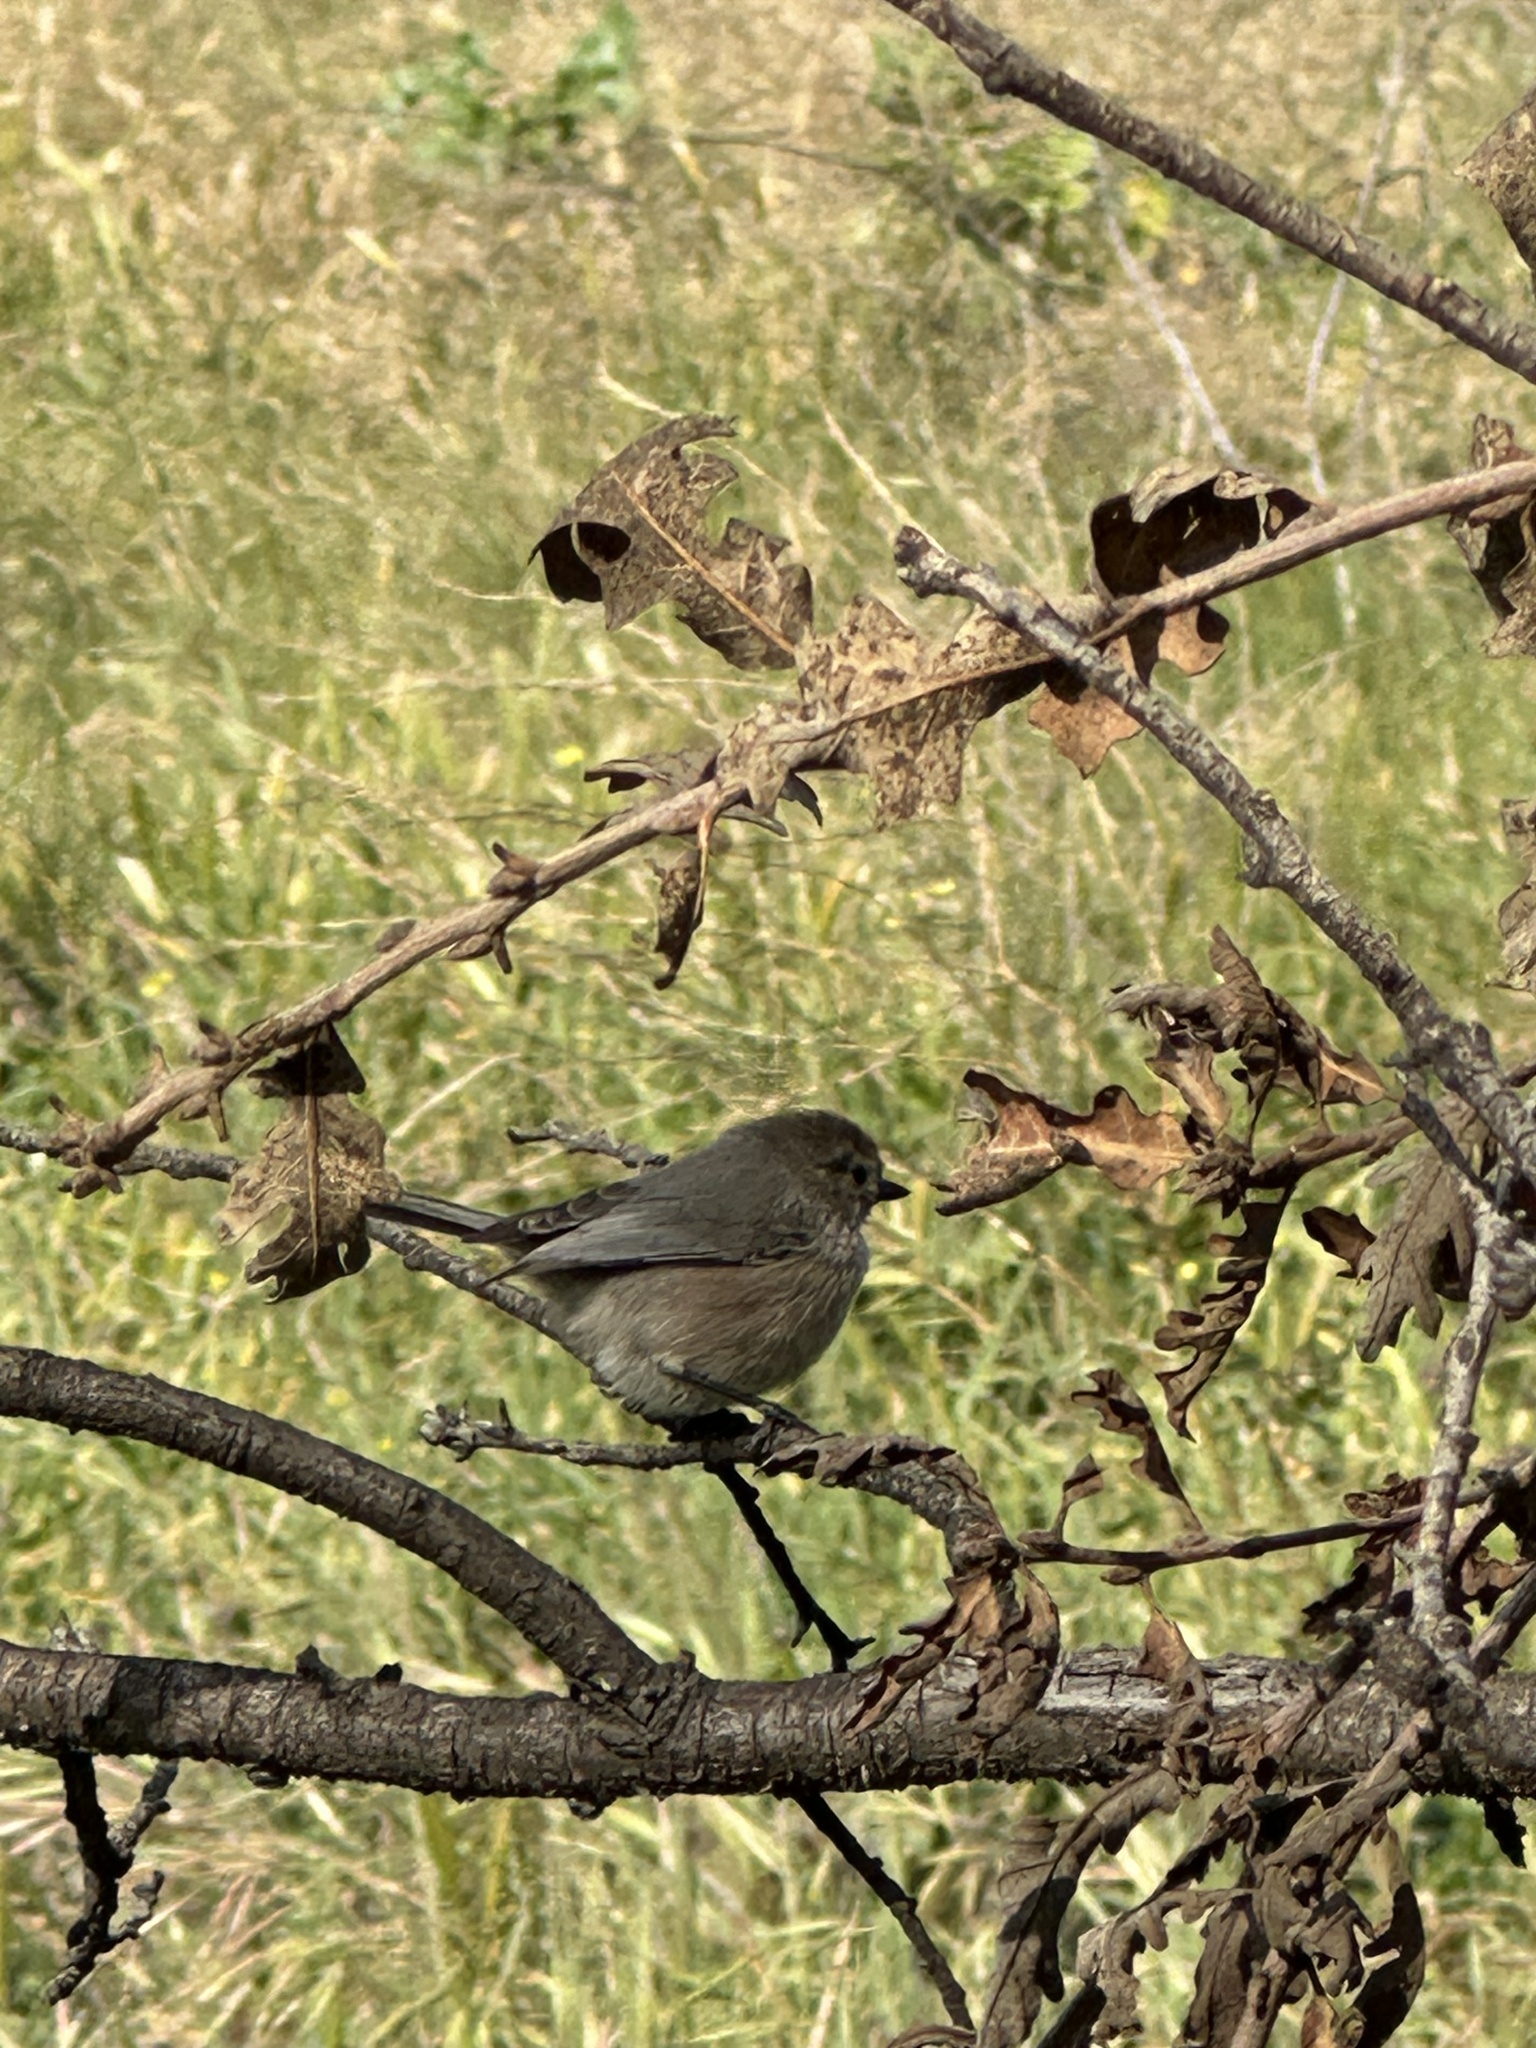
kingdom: Animalia
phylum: Chordata
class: Aves
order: Passeriformes
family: Aegithalidae
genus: Psaltriparus
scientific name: Psaltriparus minimus
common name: American bushtit
